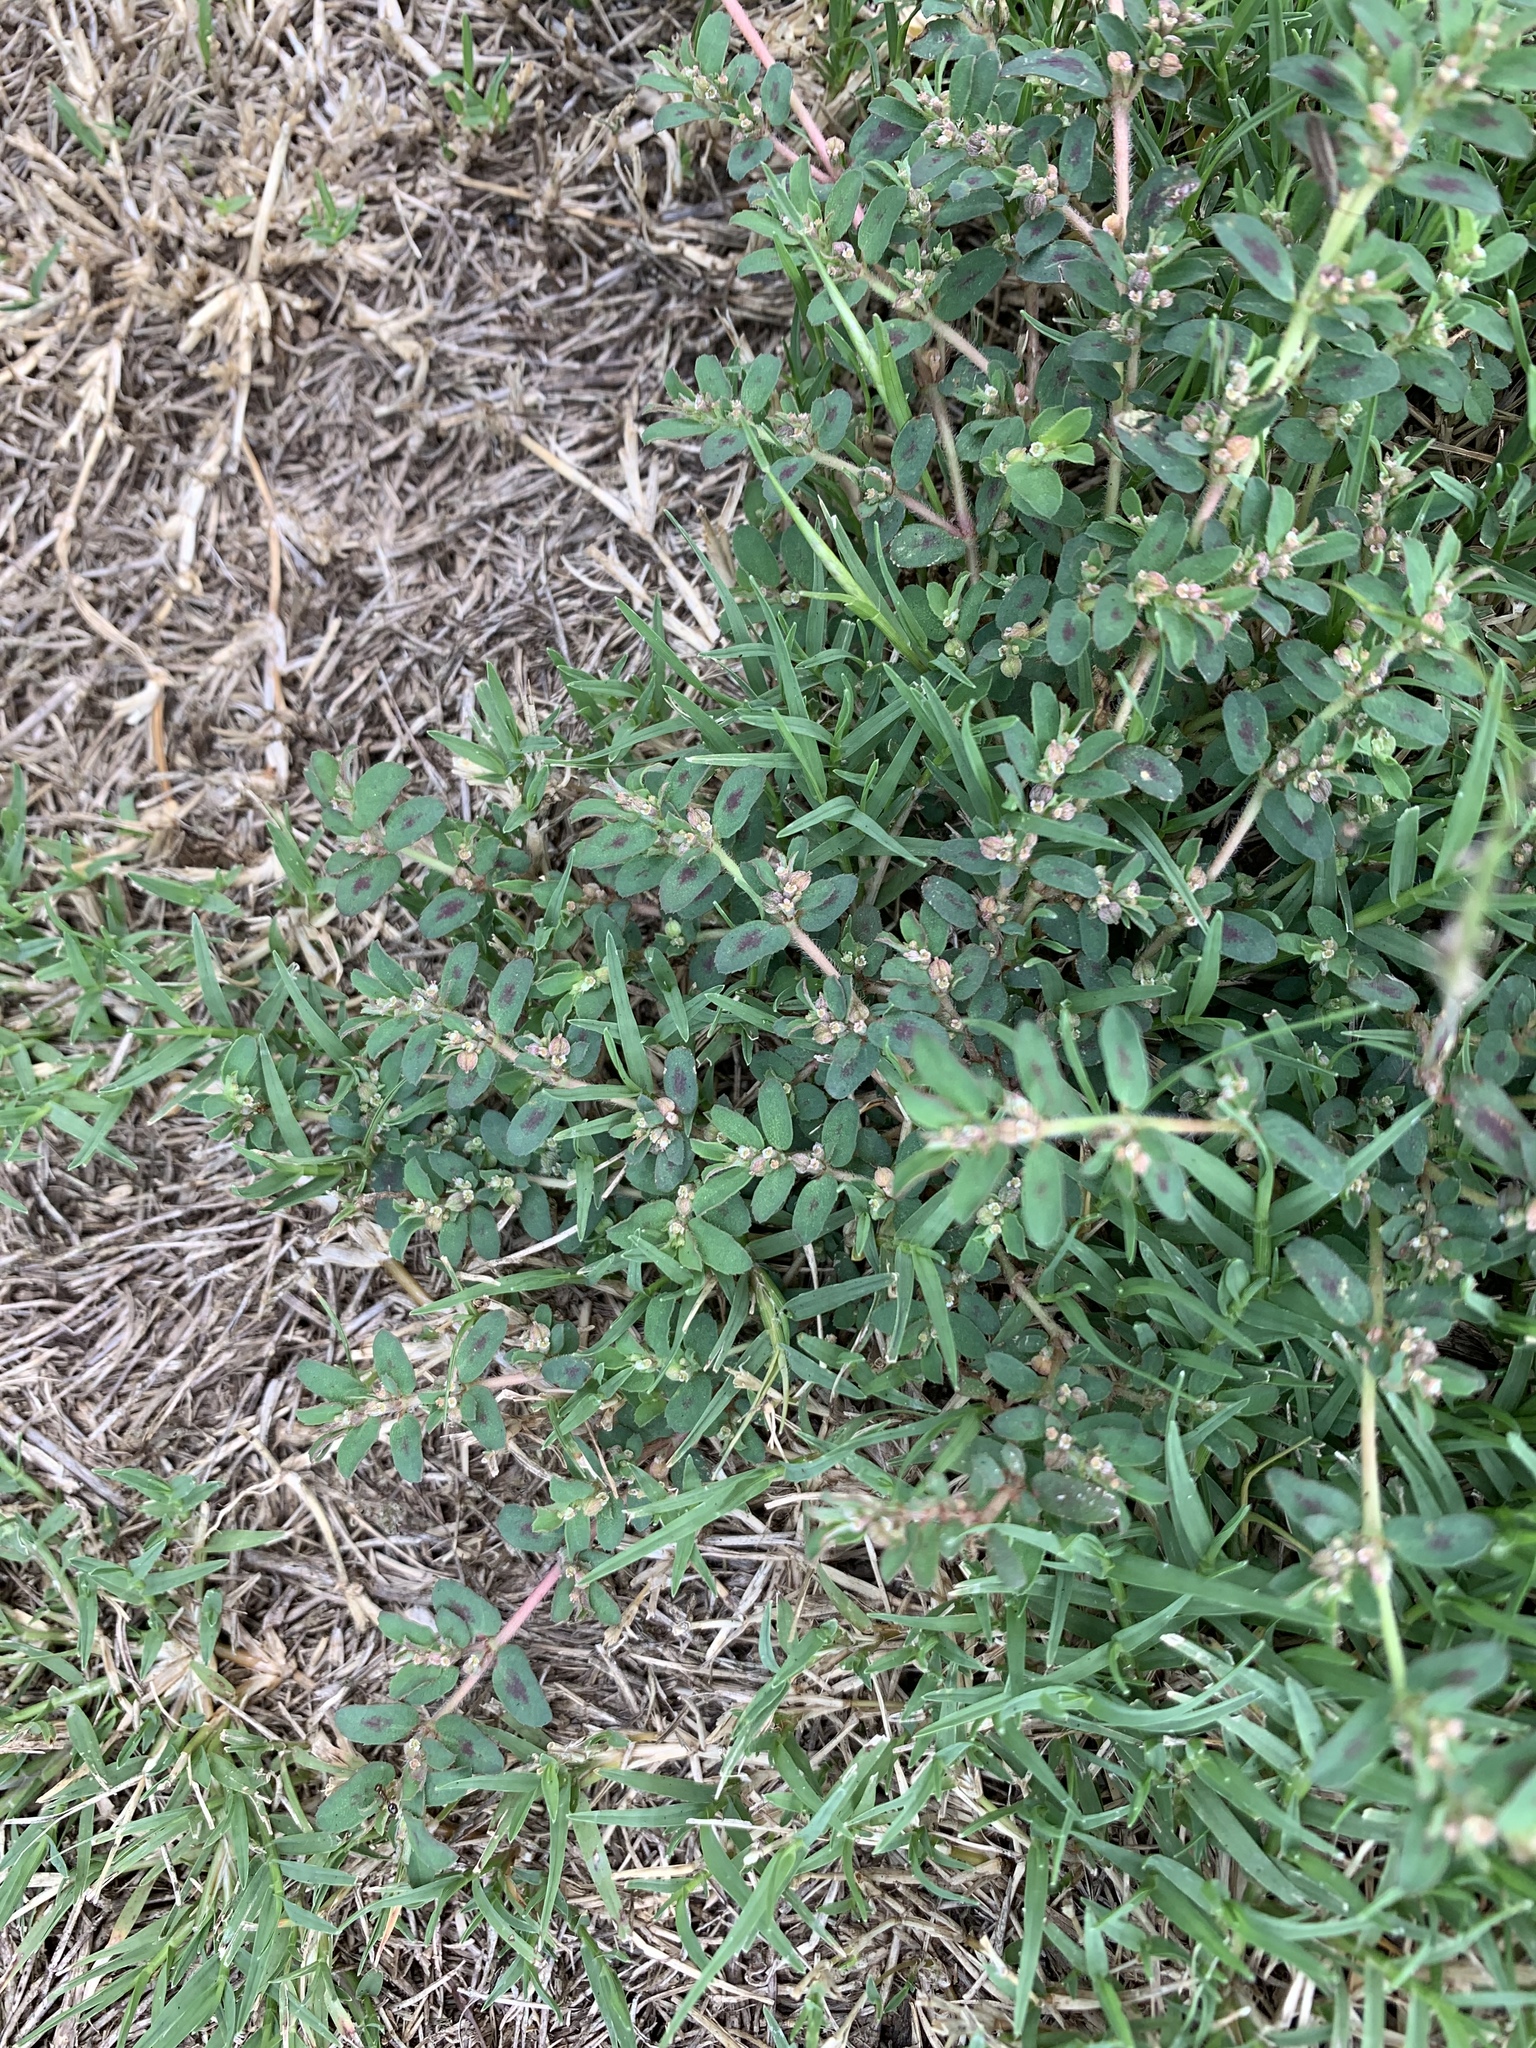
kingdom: Plantae
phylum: Tracheophyta
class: Magnoliopsida
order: Malpighiales
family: Euphorbiaceae
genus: Euphorbia
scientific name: Euphorbia maculata
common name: Spotted spurge
